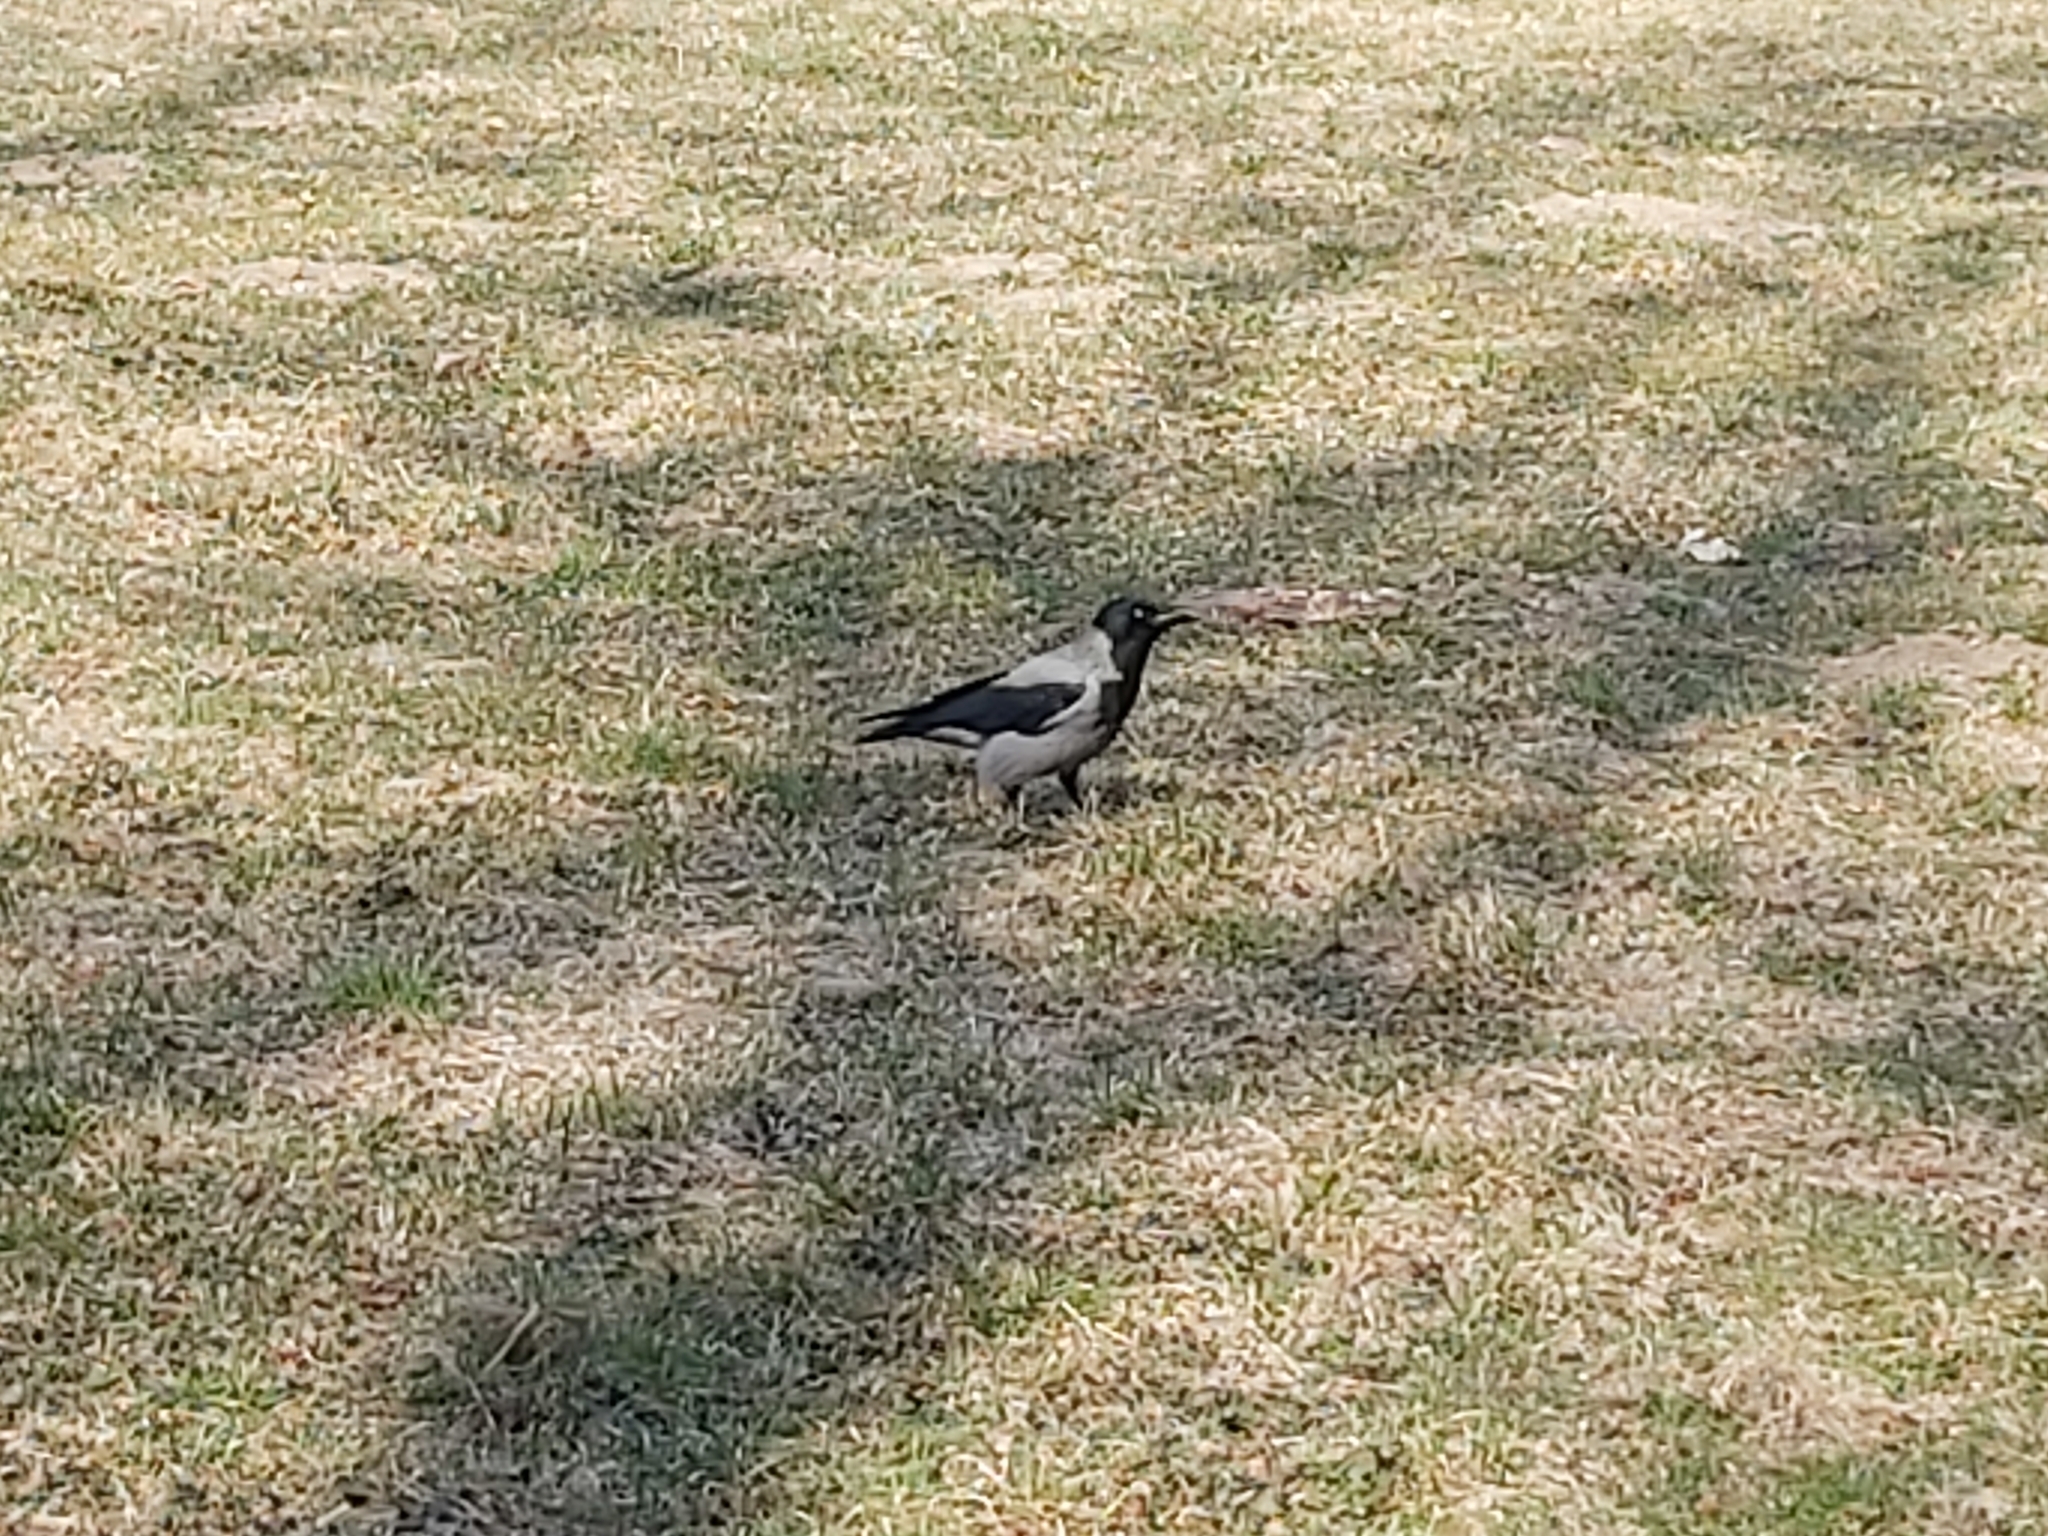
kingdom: Animalia
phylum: Chordata
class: Aves
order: Passeriformes
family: Corvidae
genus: Corvus
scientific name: Corvus cornix
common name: Hooded crow
